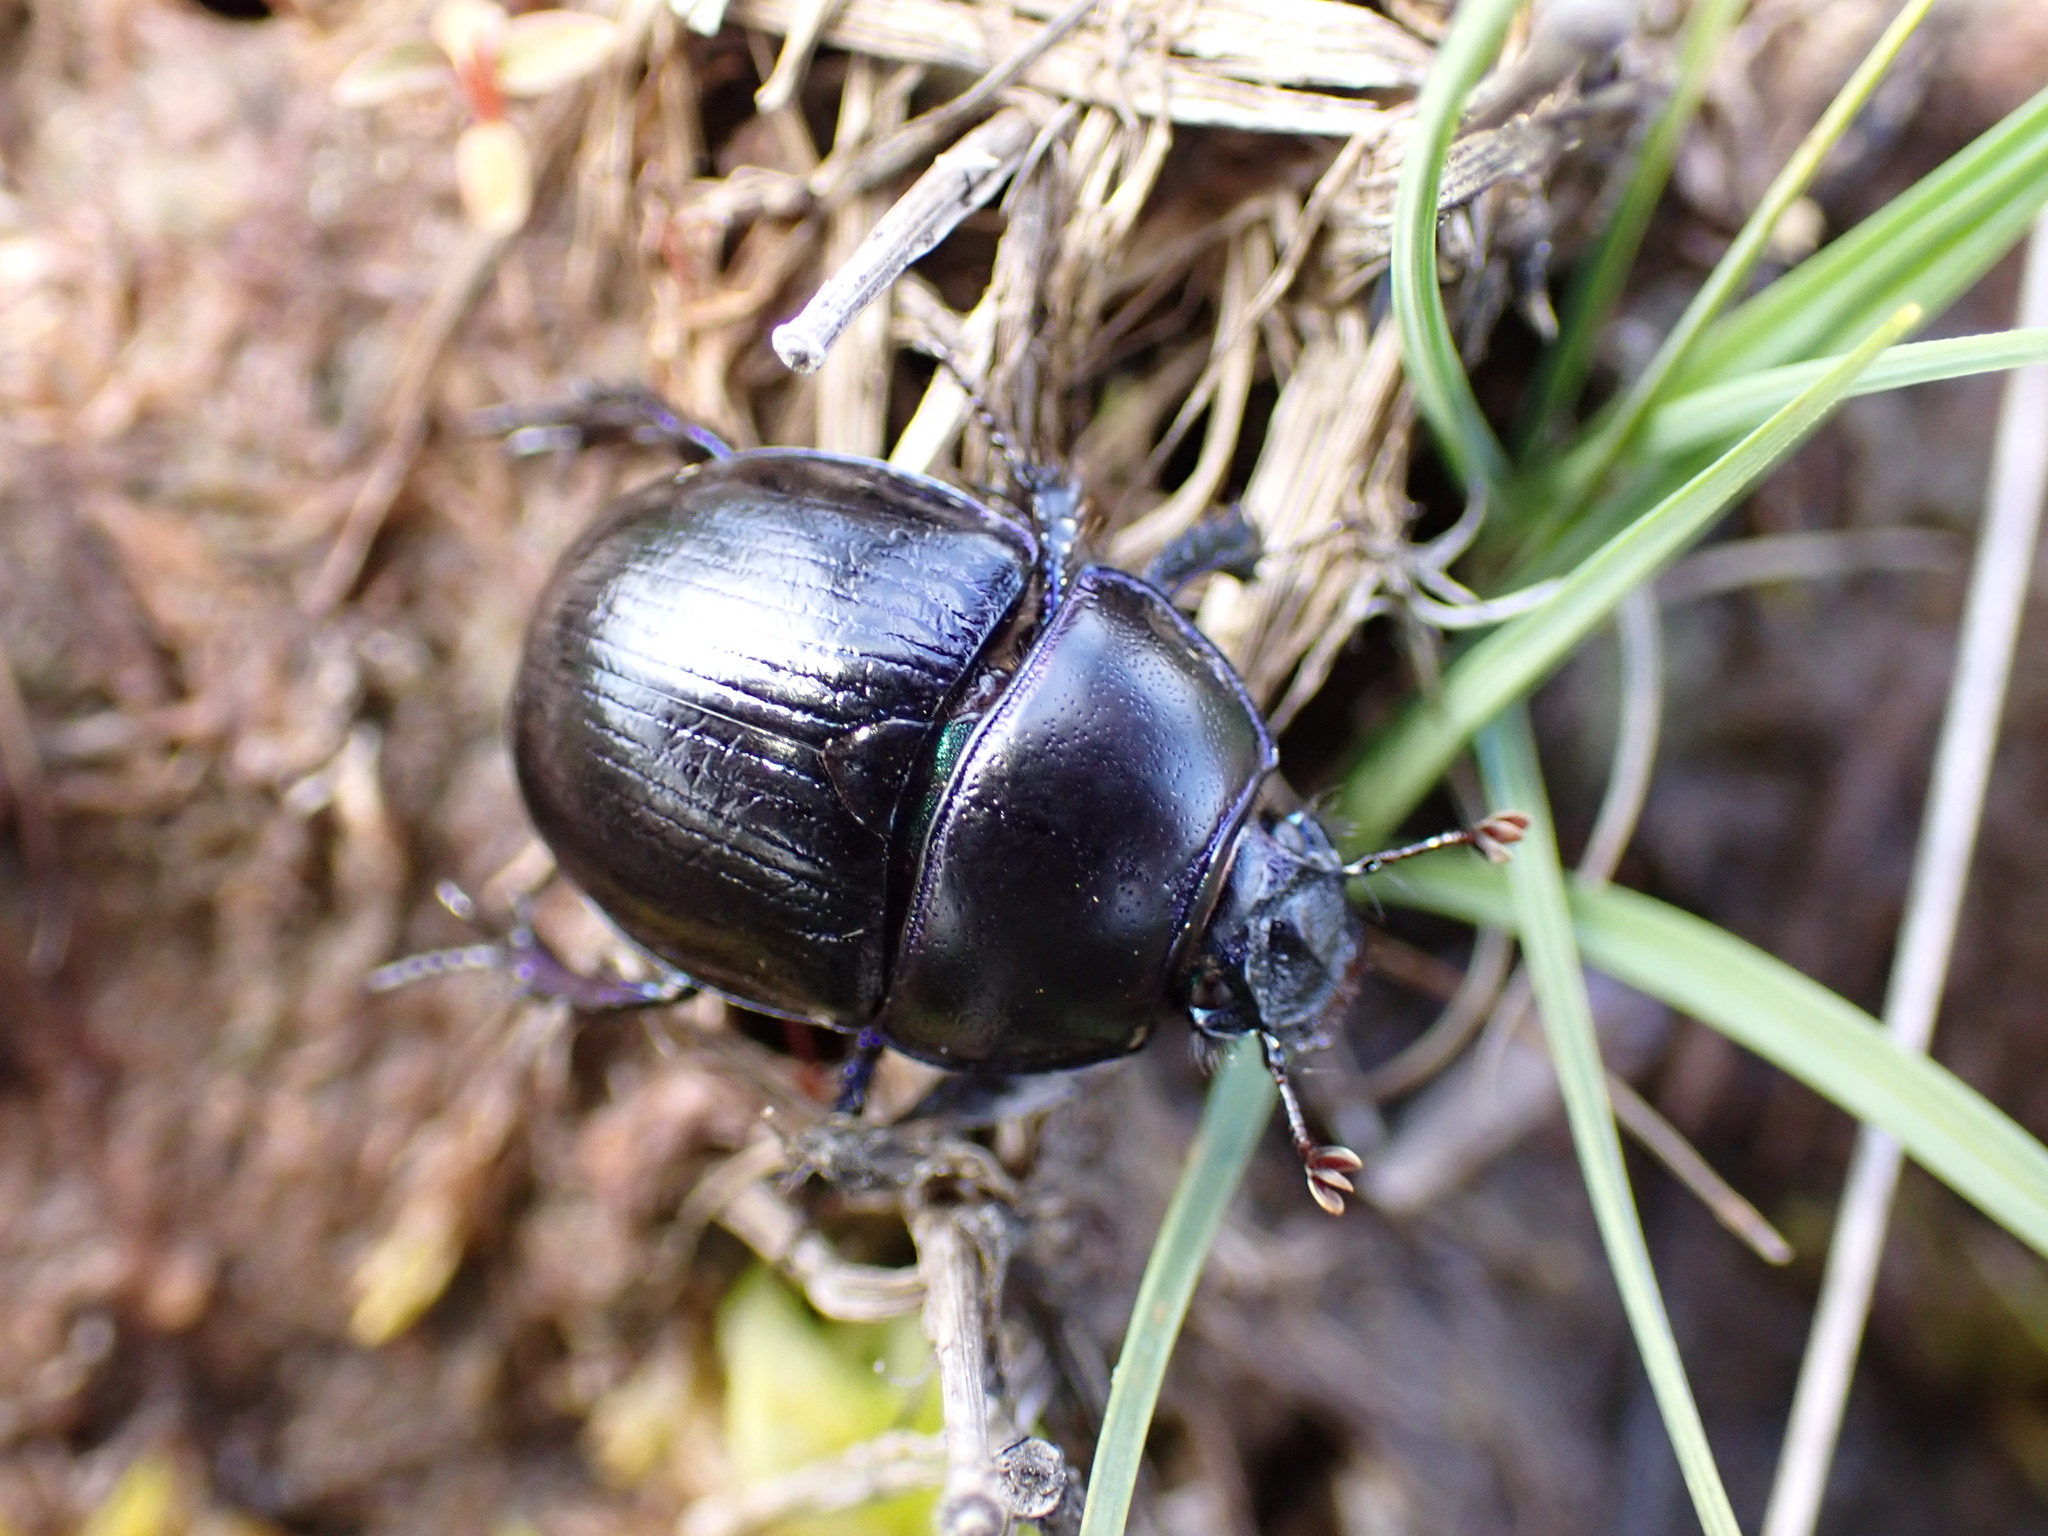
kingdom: Animalia
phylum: Arthropoda
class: Insecta
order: Coleoptera
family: Geotrupidae
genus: Anoplotrupes
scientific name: Anoplotrupes stercorosus
